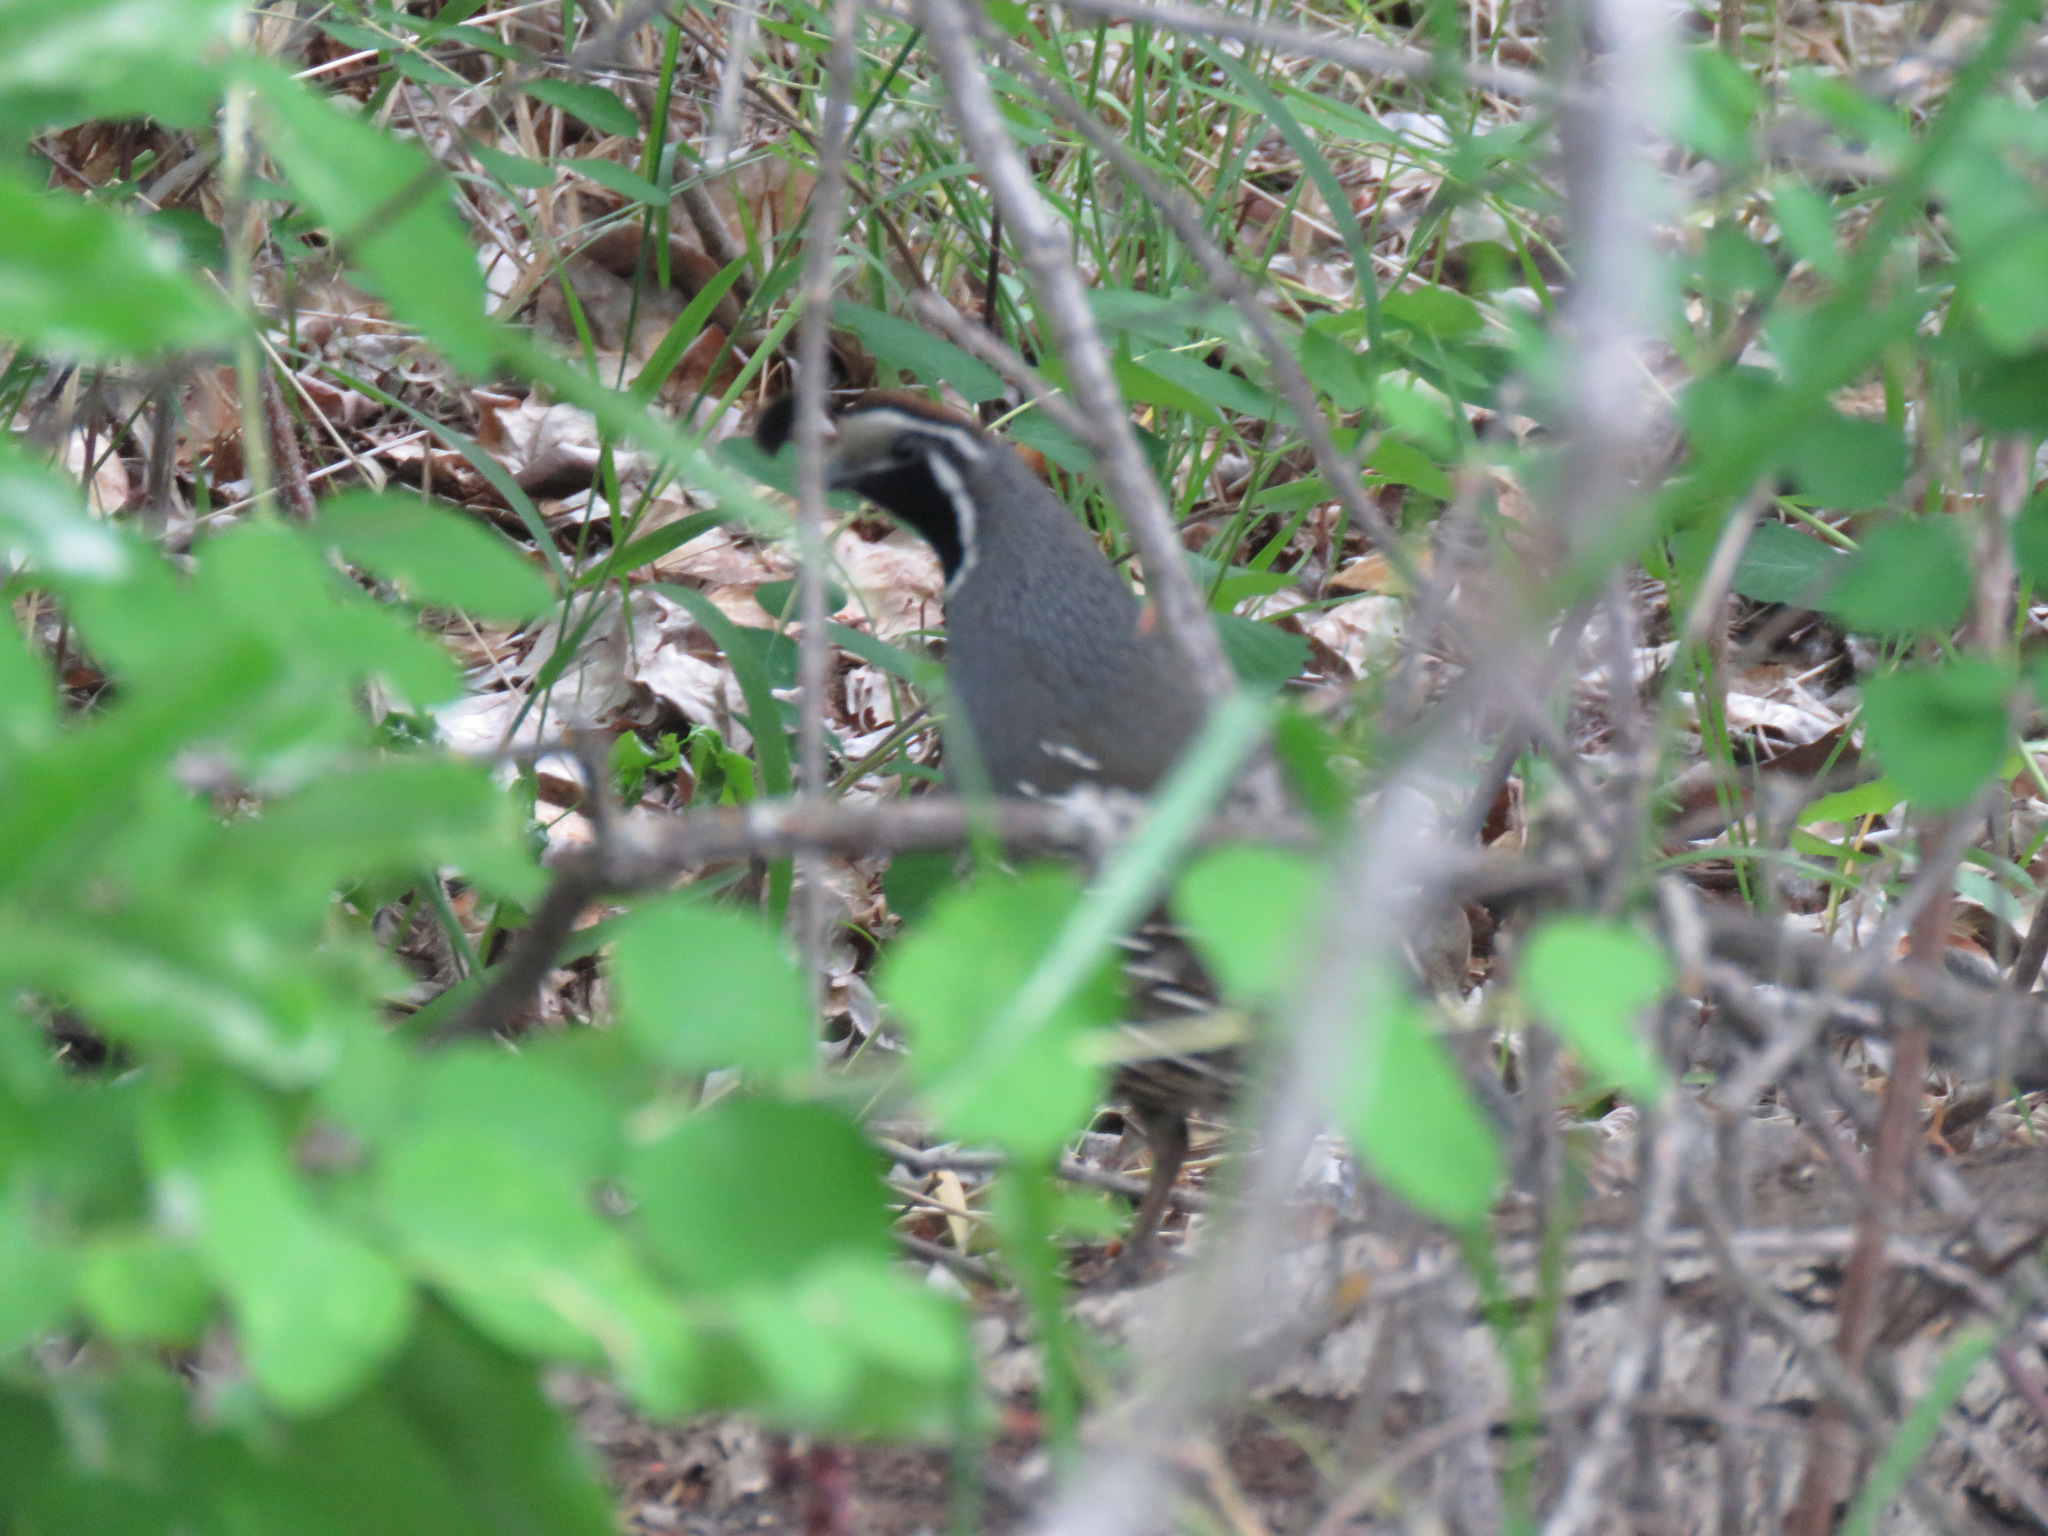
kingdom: Animalia
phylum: Chordata
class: Aves
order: Galliformes
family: Odontophoridae
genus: Callipepla
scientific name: Callipepla californica
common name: California quail
